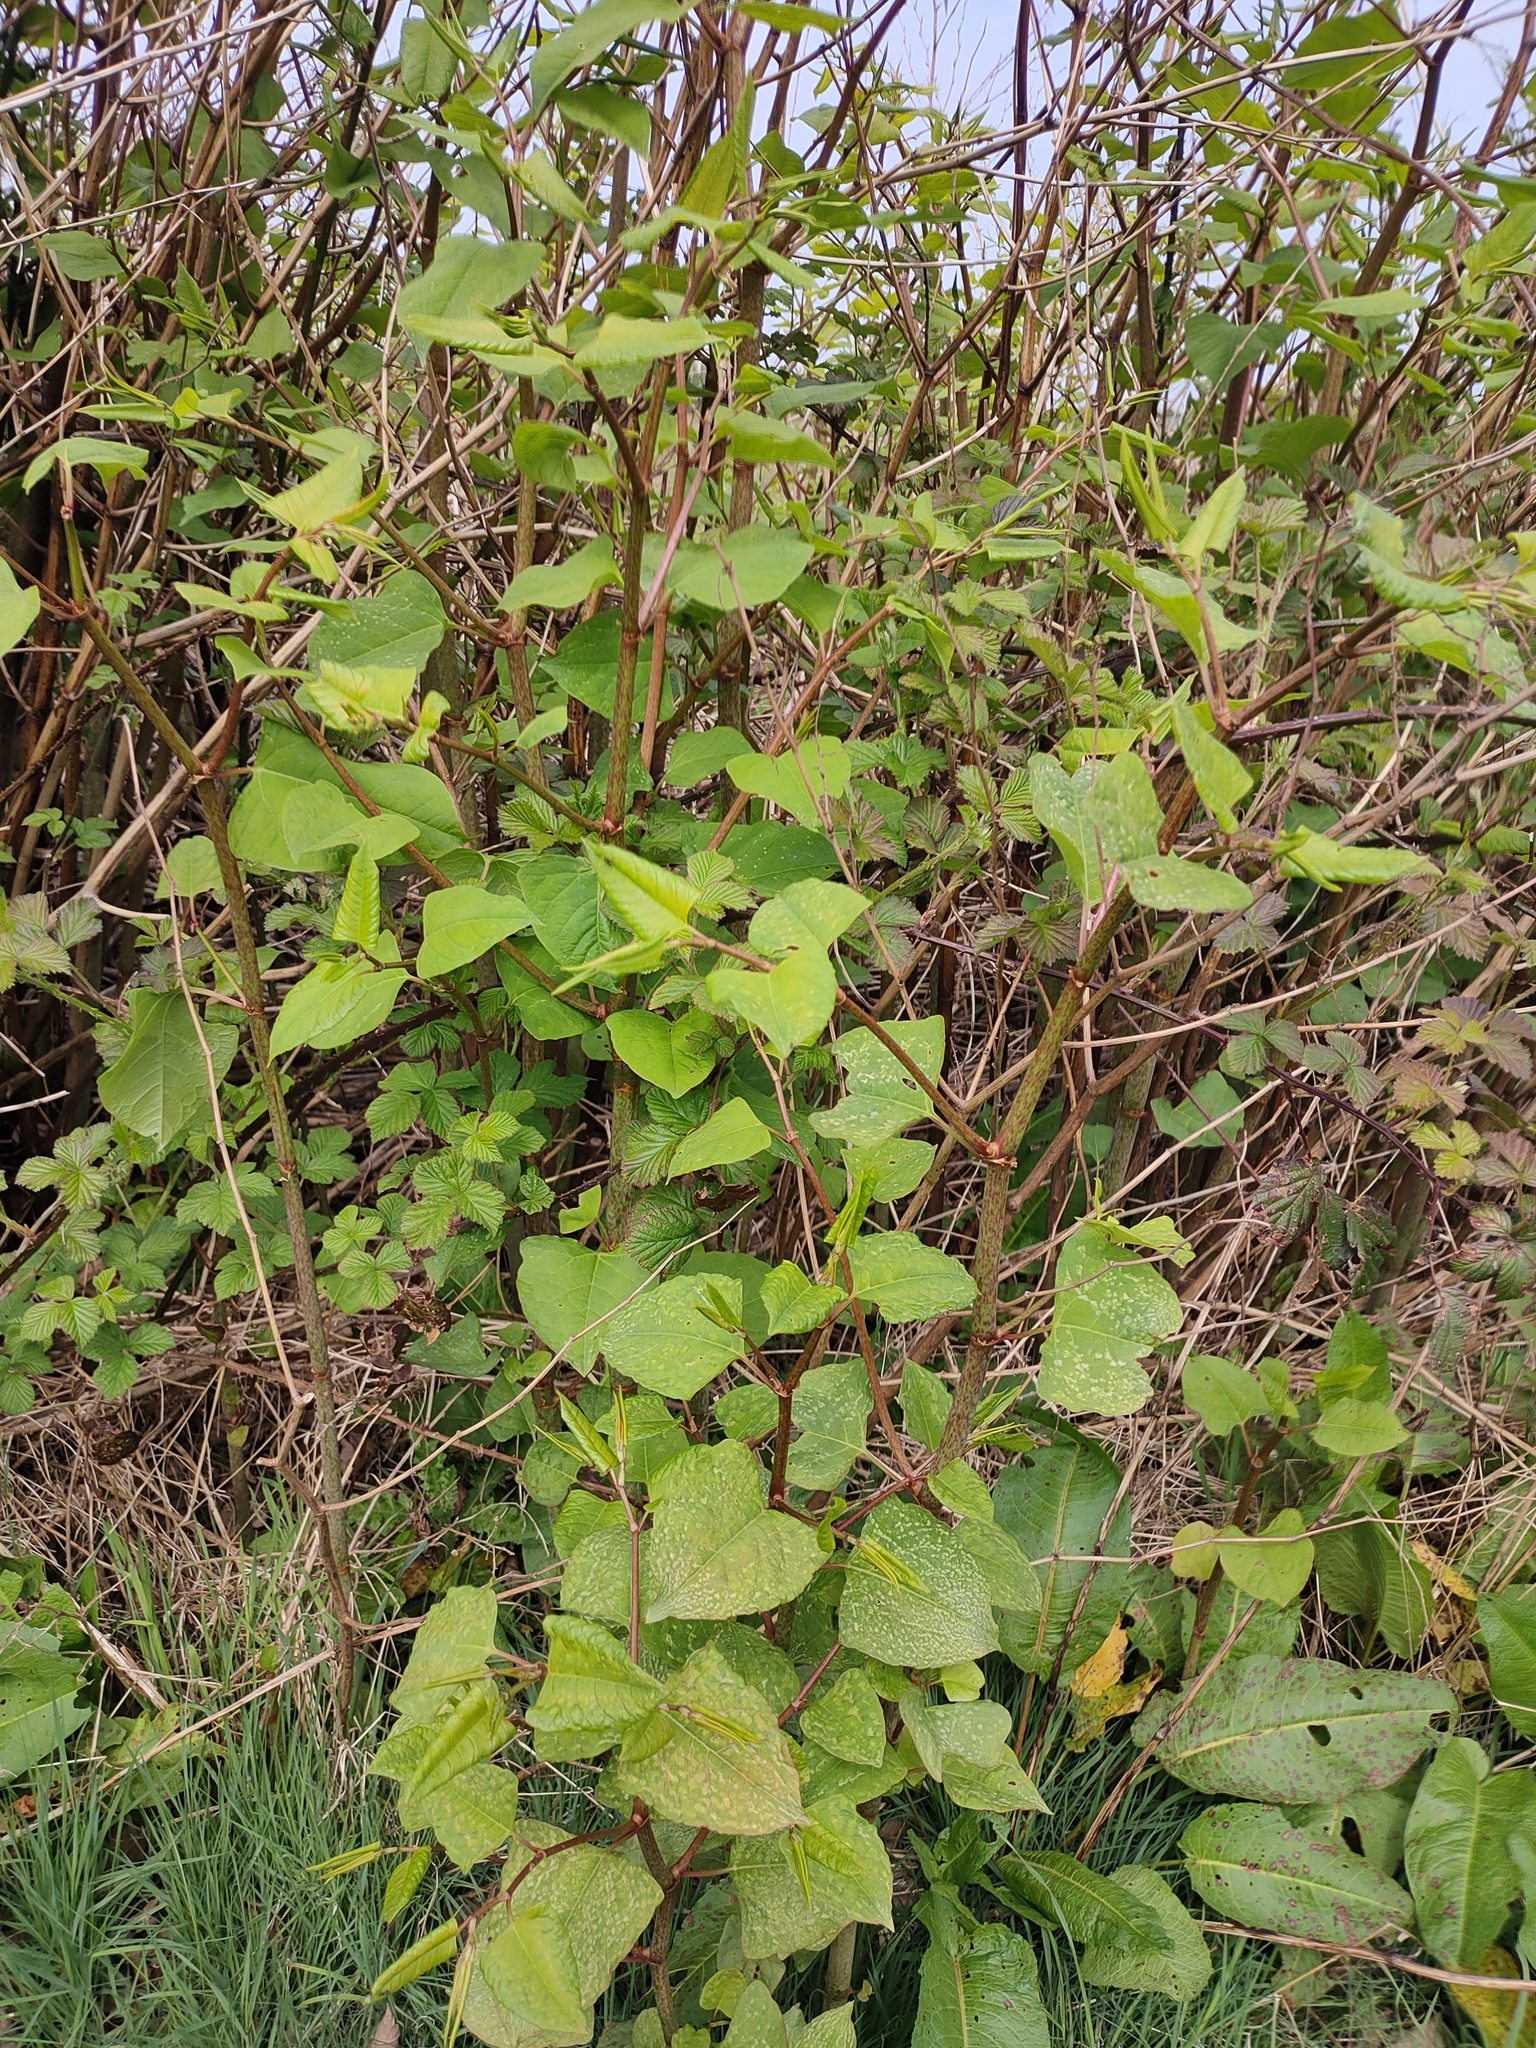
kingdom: Plantae
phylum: Tracheophyta
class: Magnoliopsida
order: Caryophyllales
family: Polygonaceae
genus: Reynoutria
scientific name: Reynoutria japonica
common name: Japanese knotweed
